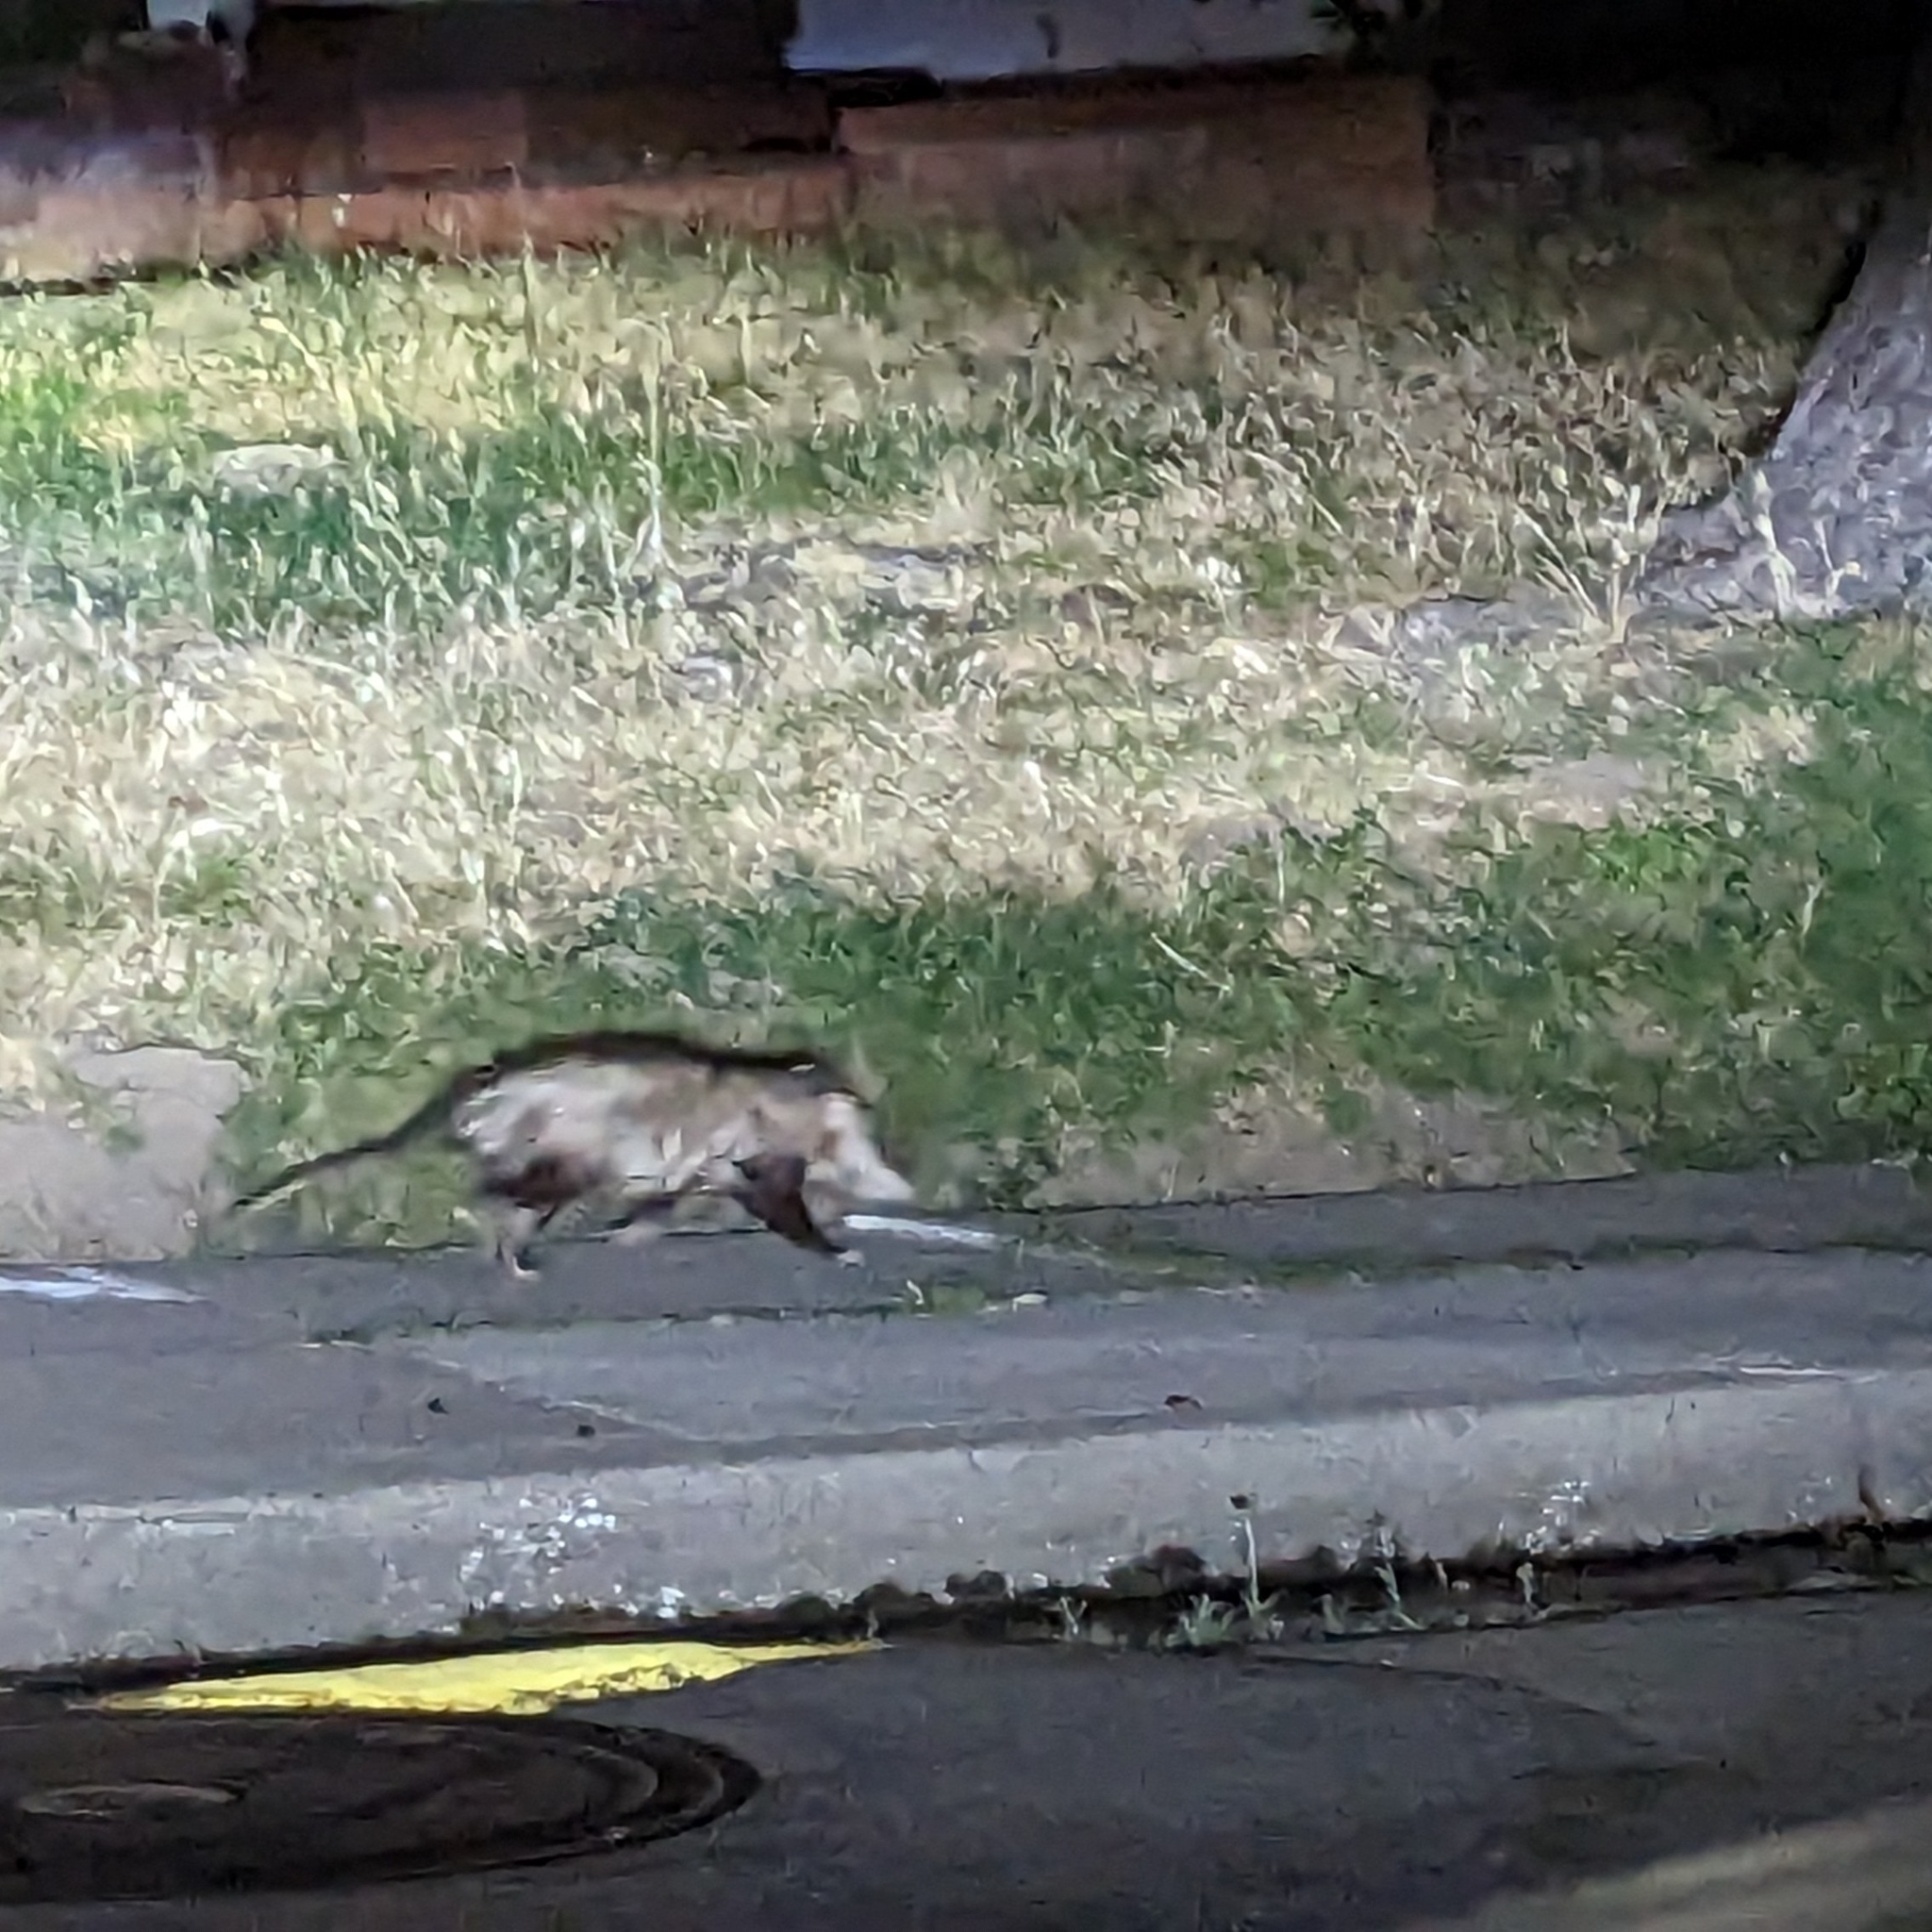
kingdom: Animalia
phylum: Chordata
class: Mammalia
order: Didelphimorphia
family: Didelphidae
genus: Didelphis
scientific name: Didelphis virginiana
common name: Virginia opossum
